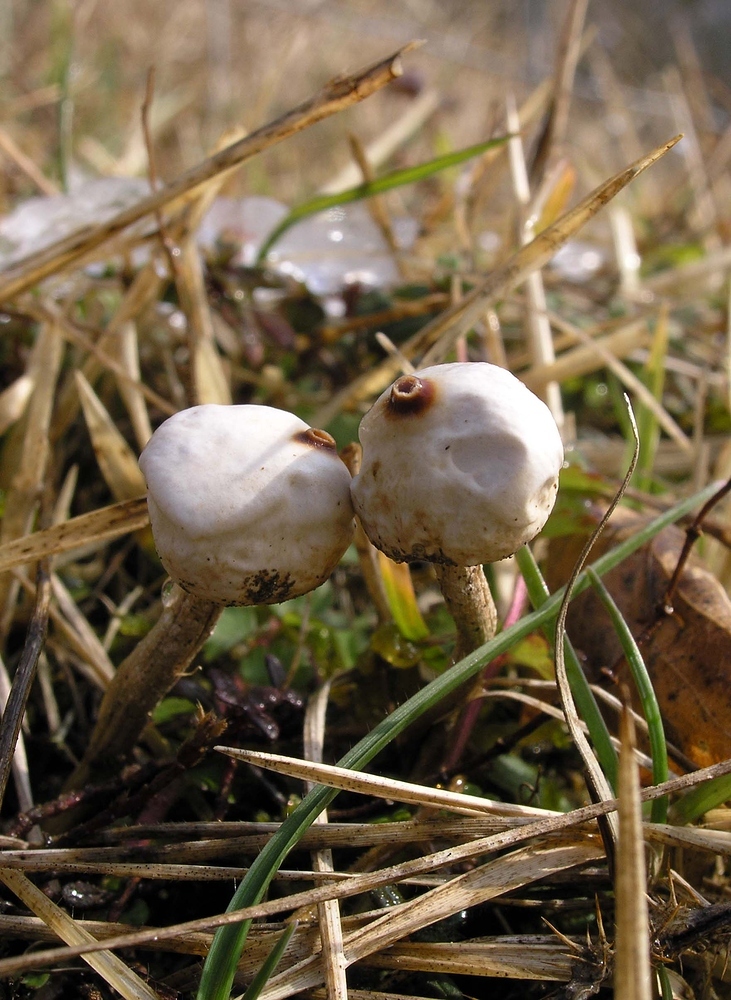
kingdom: Fungi
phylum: Basidiomycota
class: Agaricomycetes
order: Agaricales
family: Agaricaceae
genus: Tulostoma
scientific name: Tulostoma brumale
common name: Winter stalk puffball
